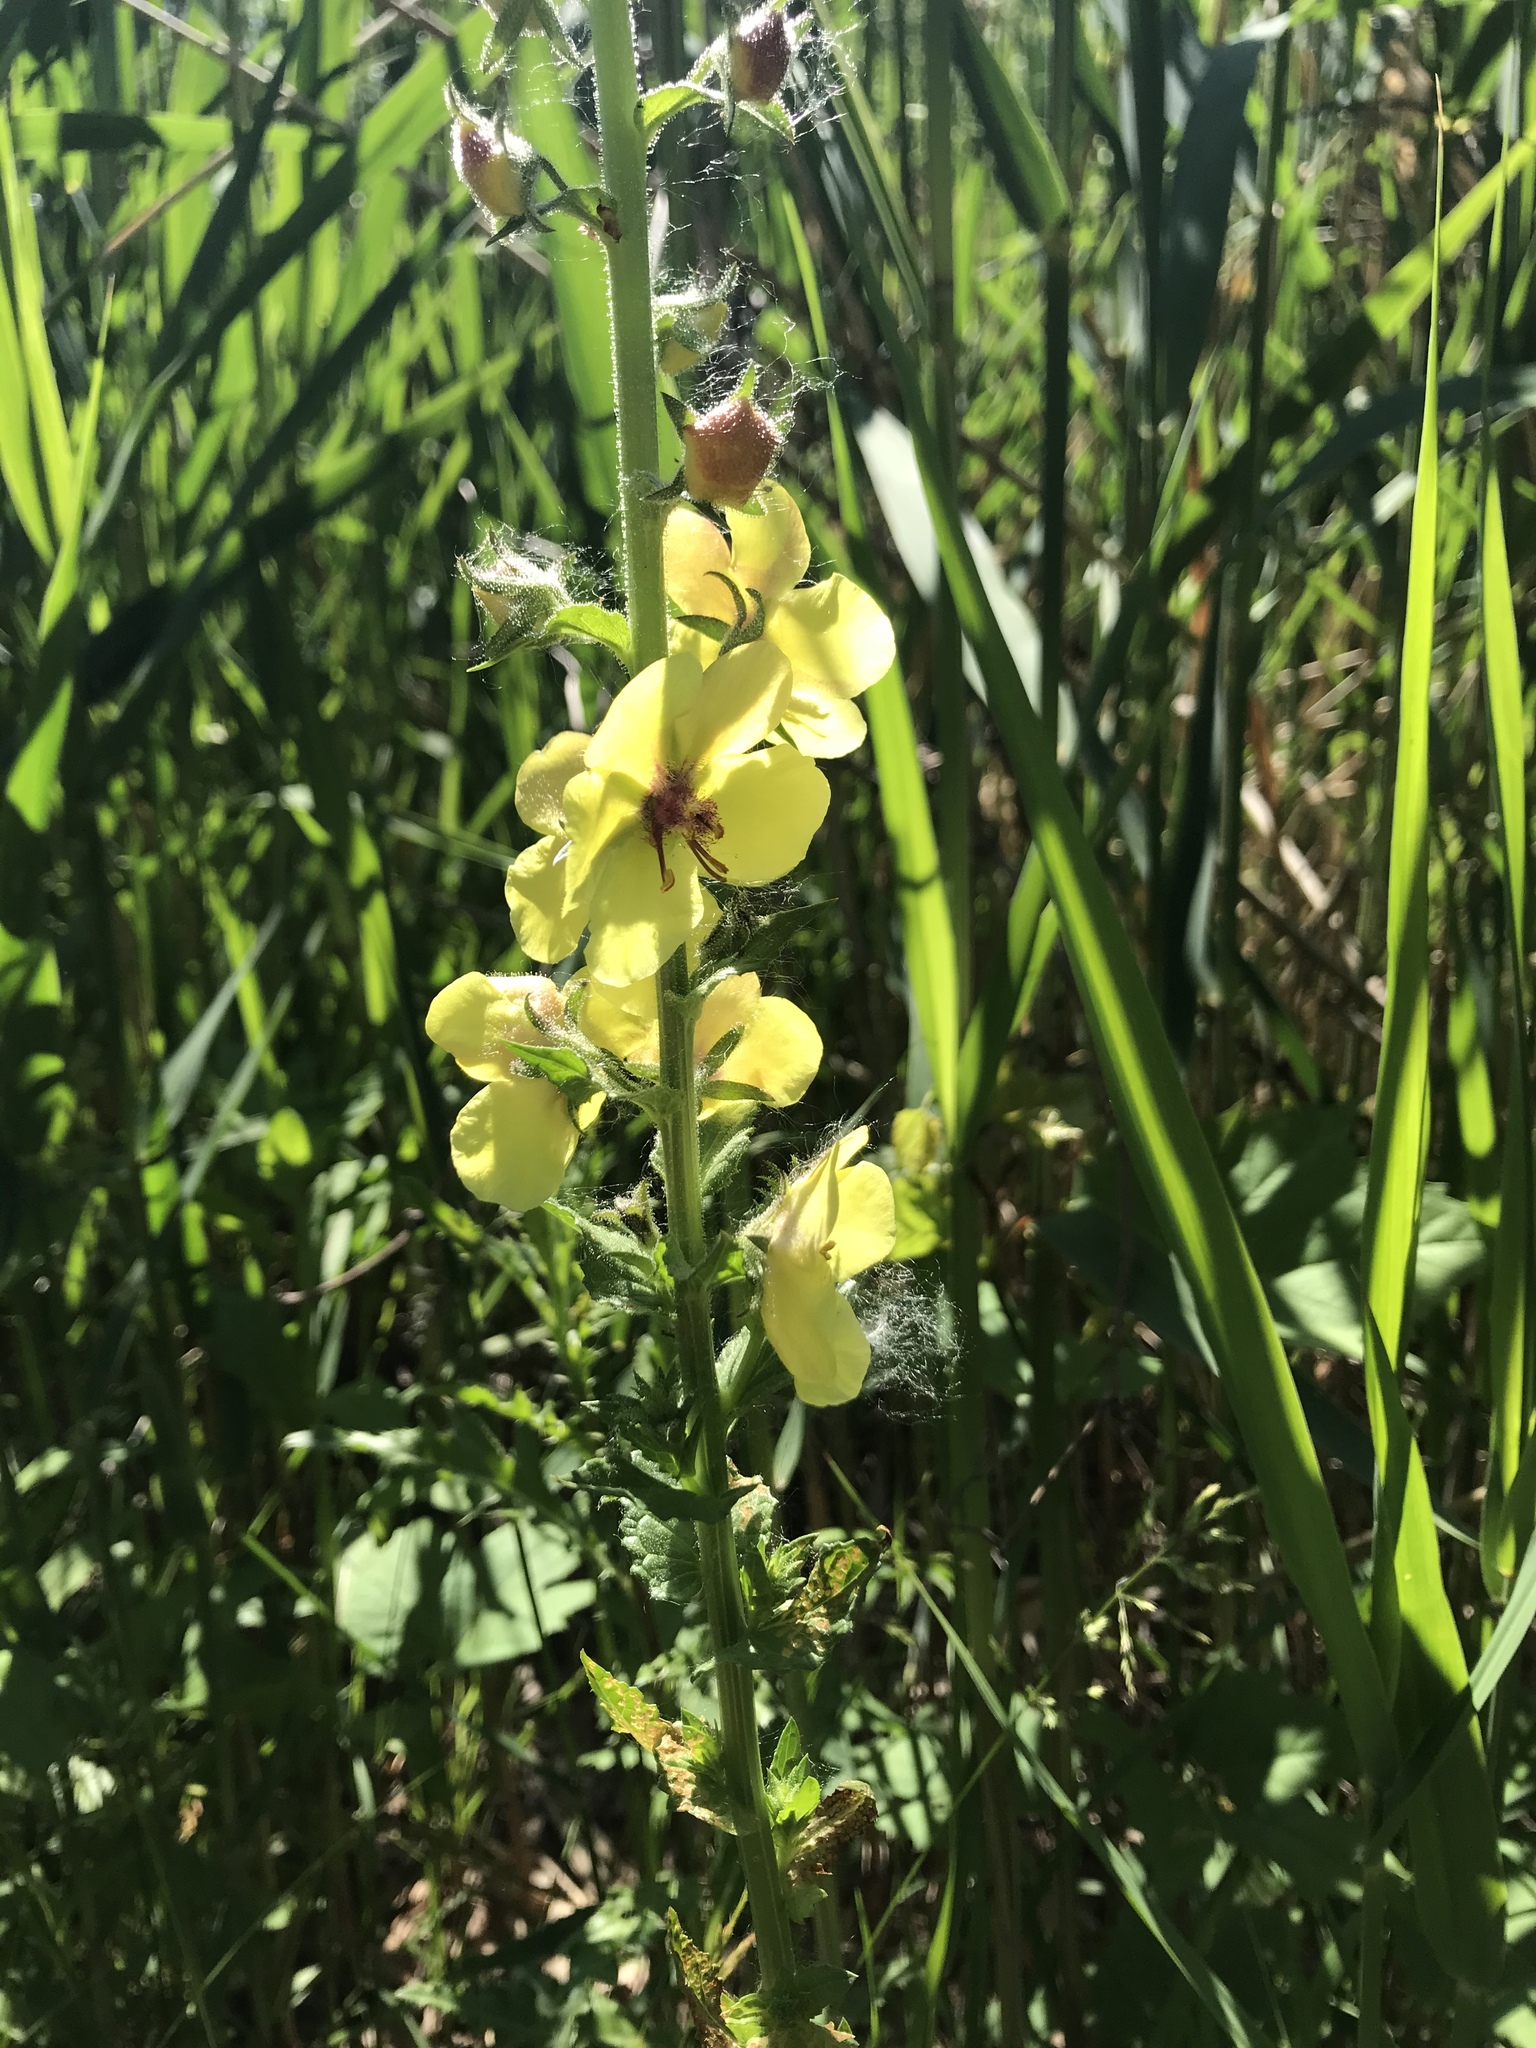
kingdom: Plantae
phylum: Tracheophyta
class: Magnoliopsida
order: Lamiales
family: Scrophulariaceae
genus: Verbascum
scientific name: Verbascum blattaria
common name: Moth mullein
